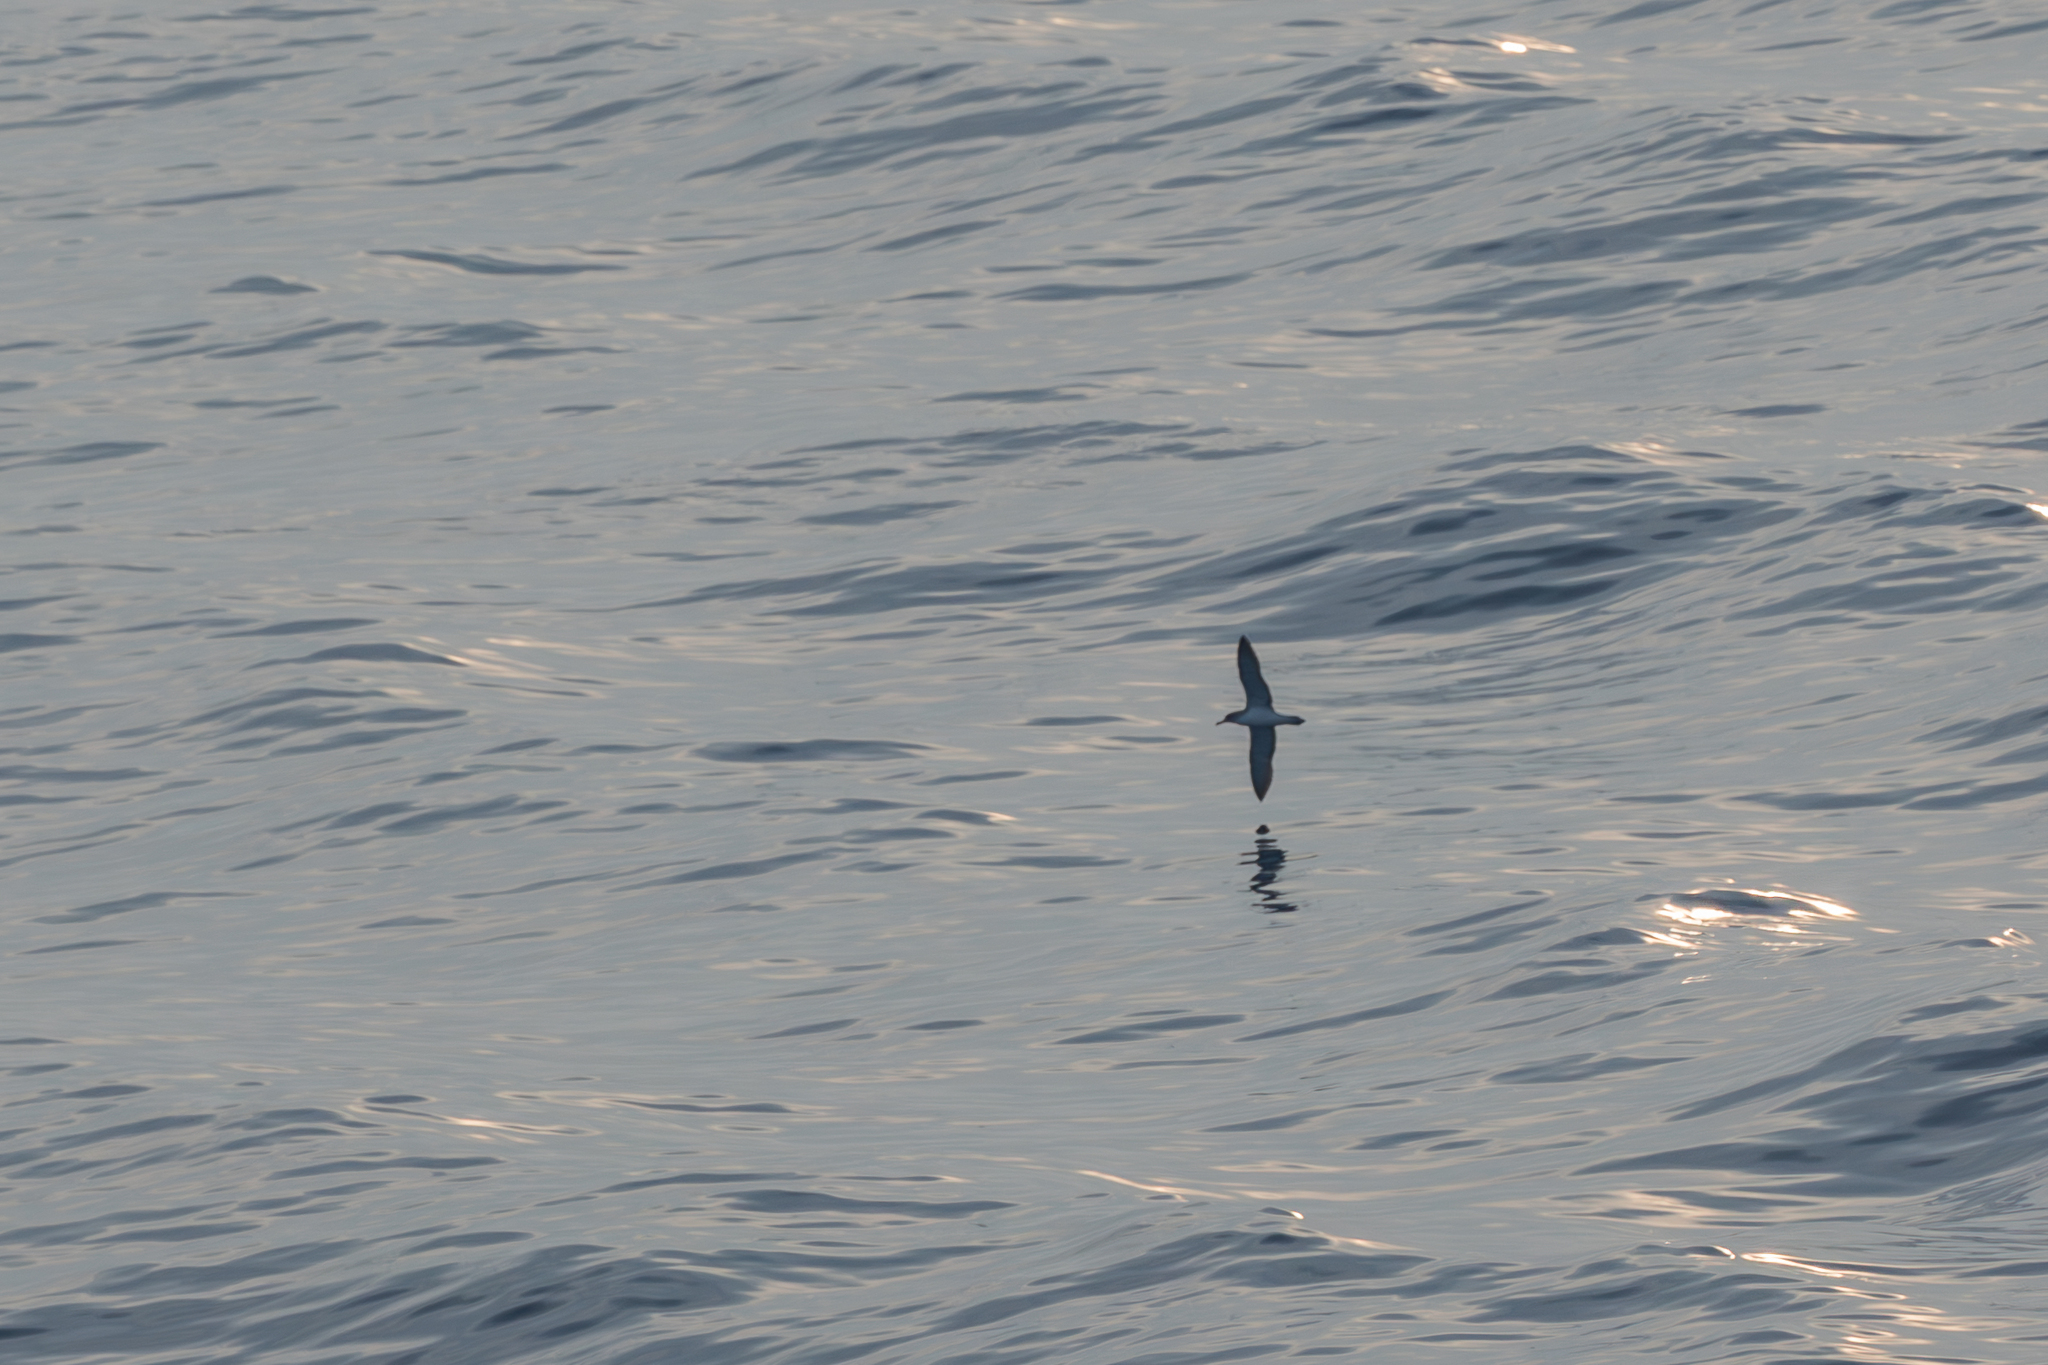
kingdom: Animalia
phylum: Chordata
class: Aves
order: Procellariiformes
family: Procellariidae
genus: Calonectris
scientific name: Calonectris diomedea
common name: Cory's shearwater
